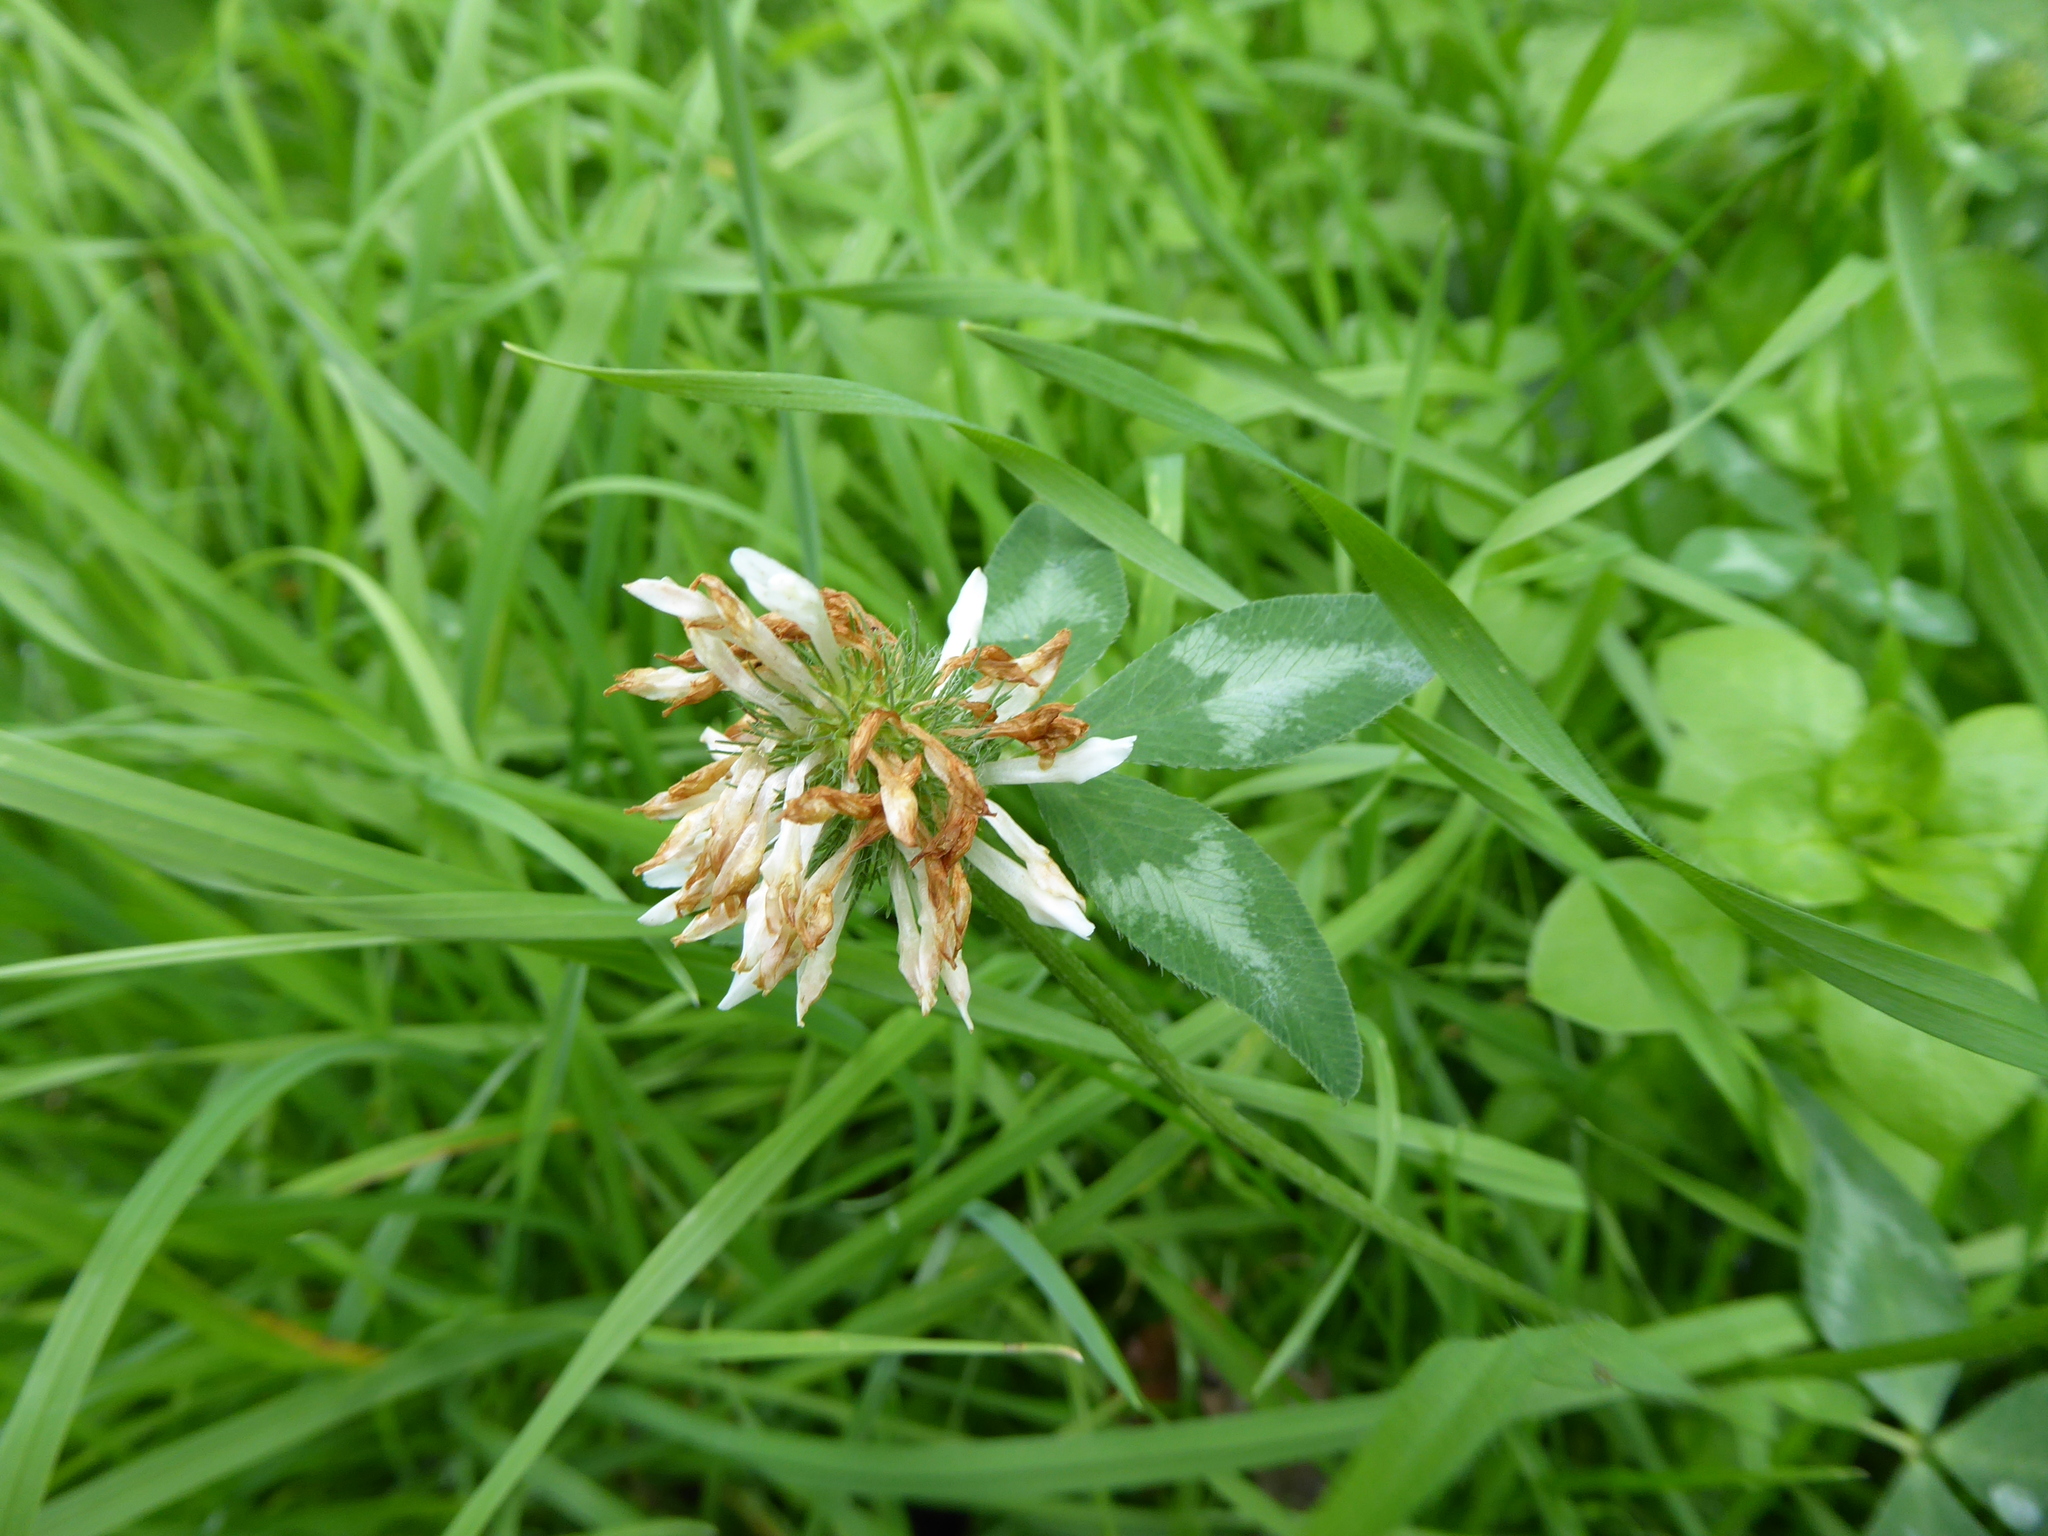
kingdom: Plantae
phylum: Tracheophyta
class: Magnoliopsida
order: Fabales
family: Fabaceae
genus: Trifolium
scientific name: Trifolium repens
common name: White clover
